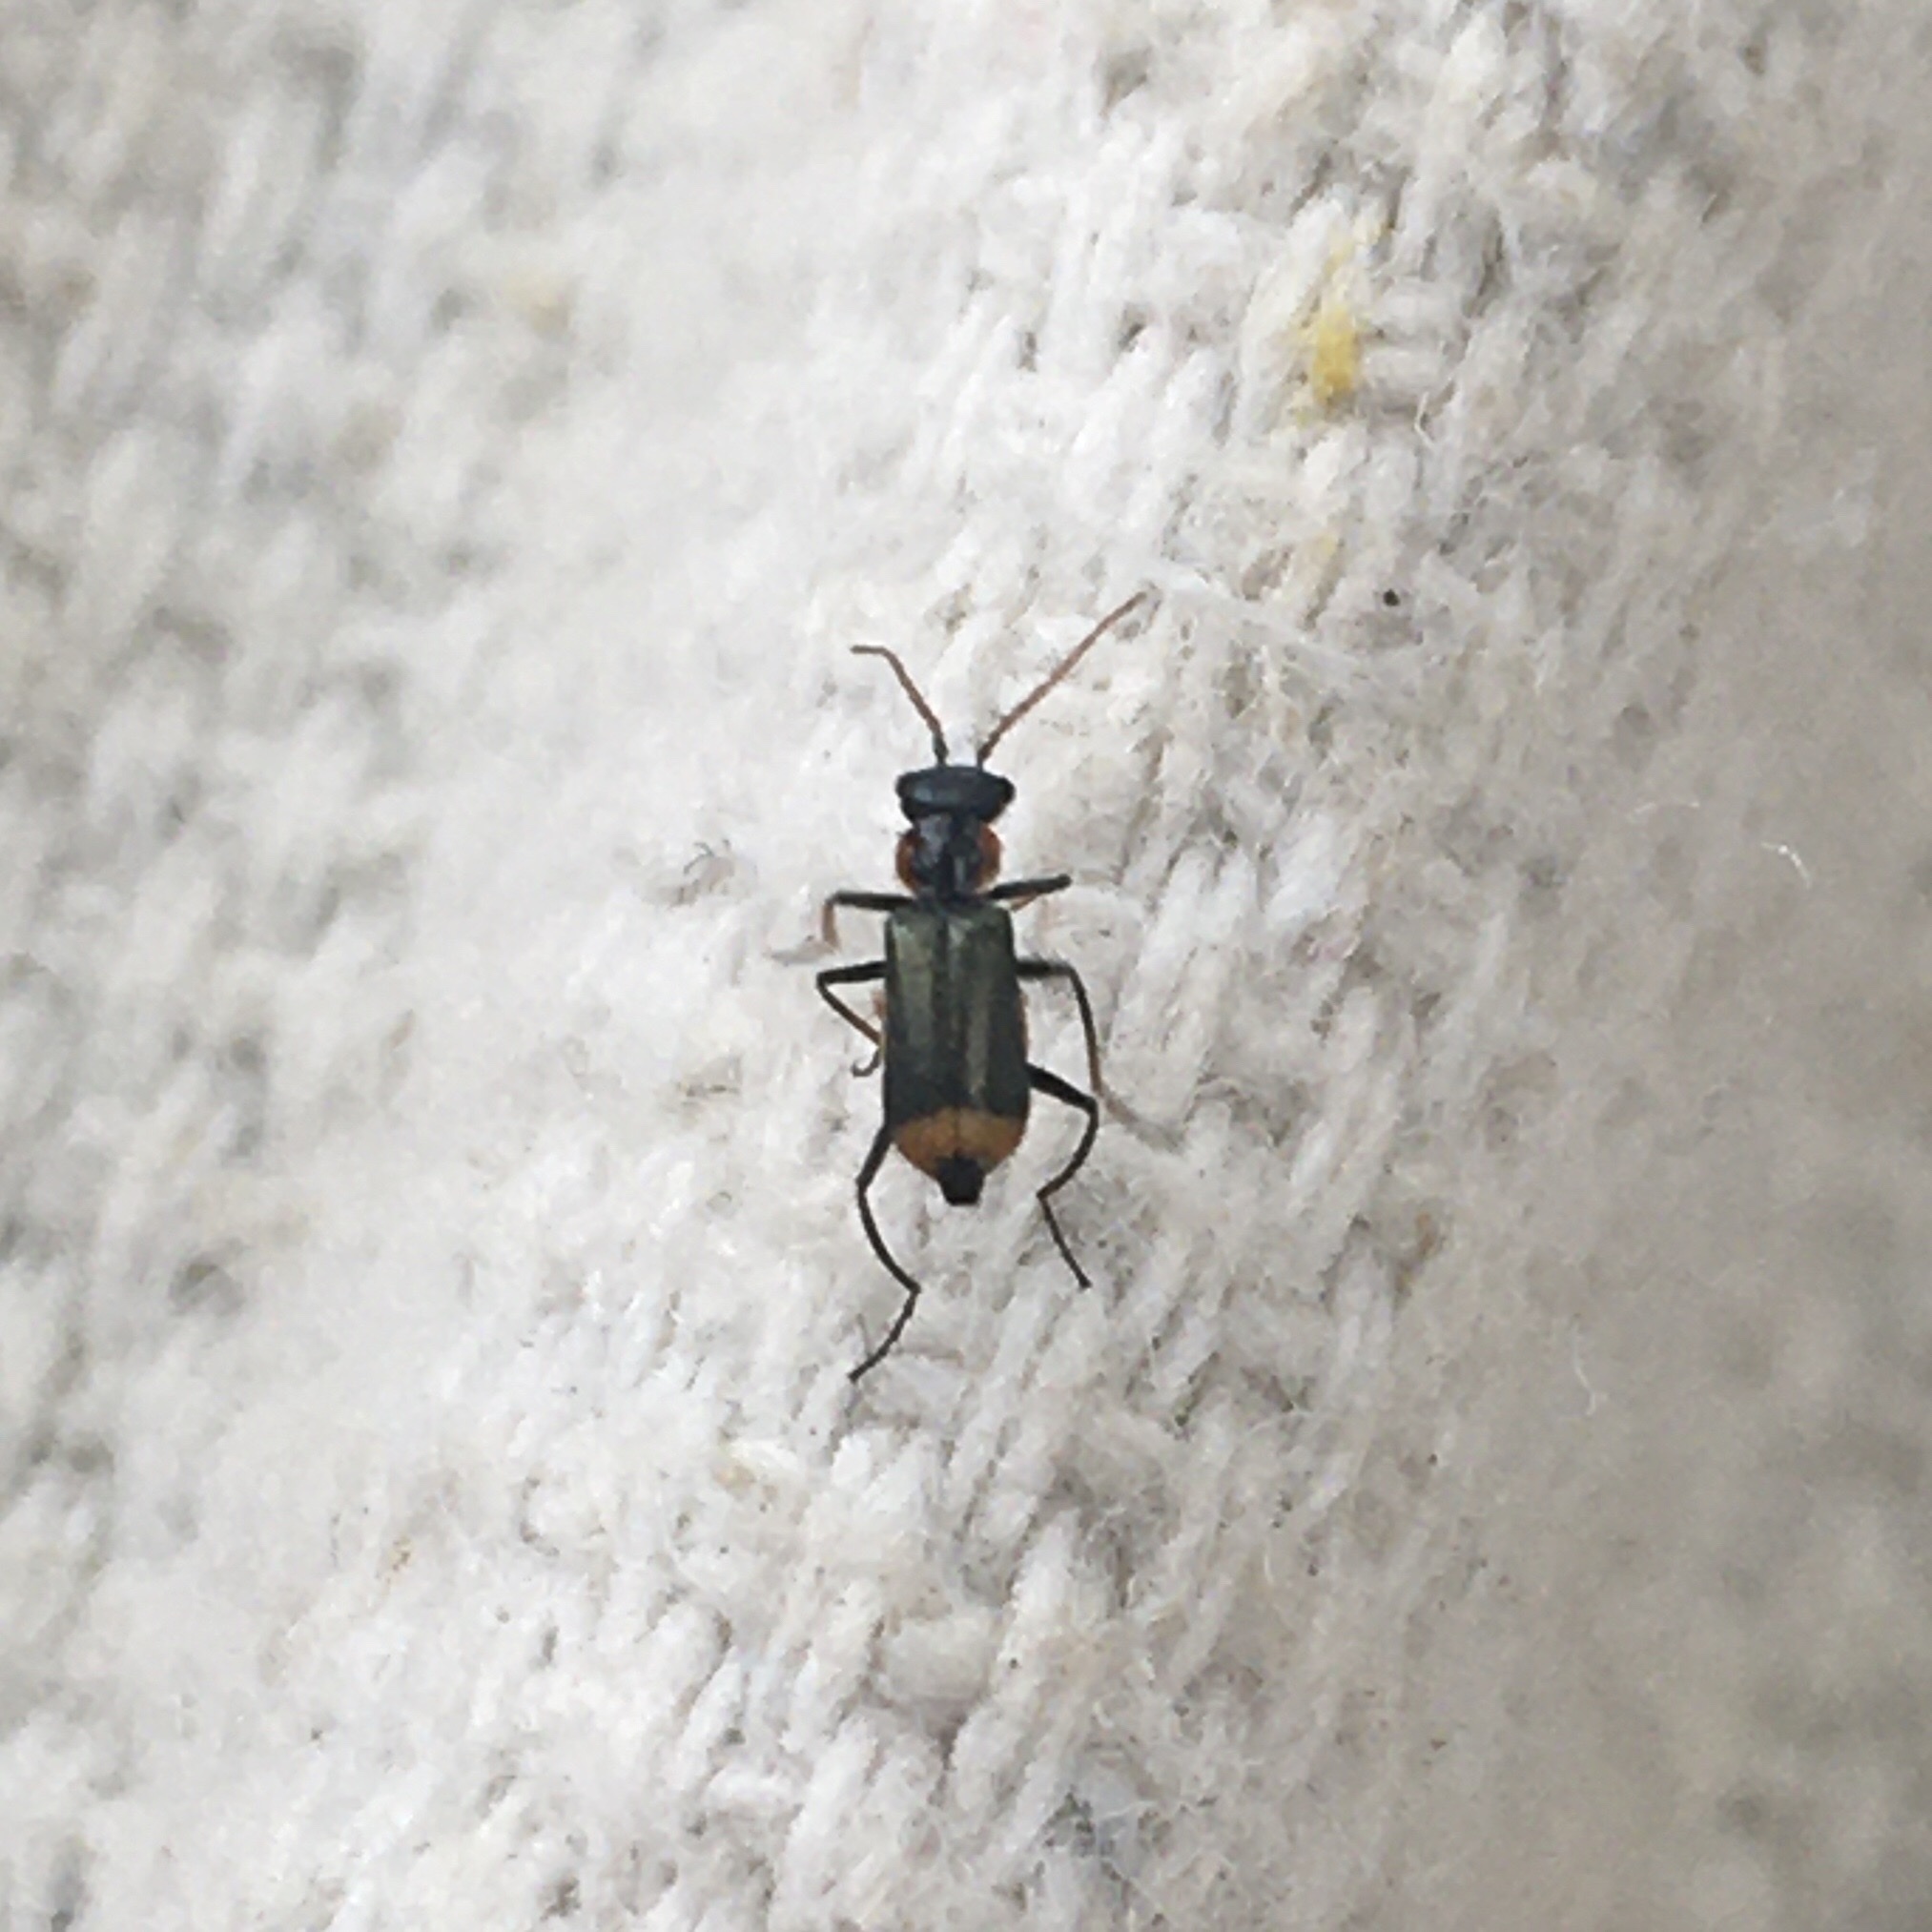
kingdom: Animalia
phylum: Arthropoda
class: Insecta
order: Coleoptera
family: Melyridae
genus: Axinotarsus
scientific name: Axinotarsus pulicarius
